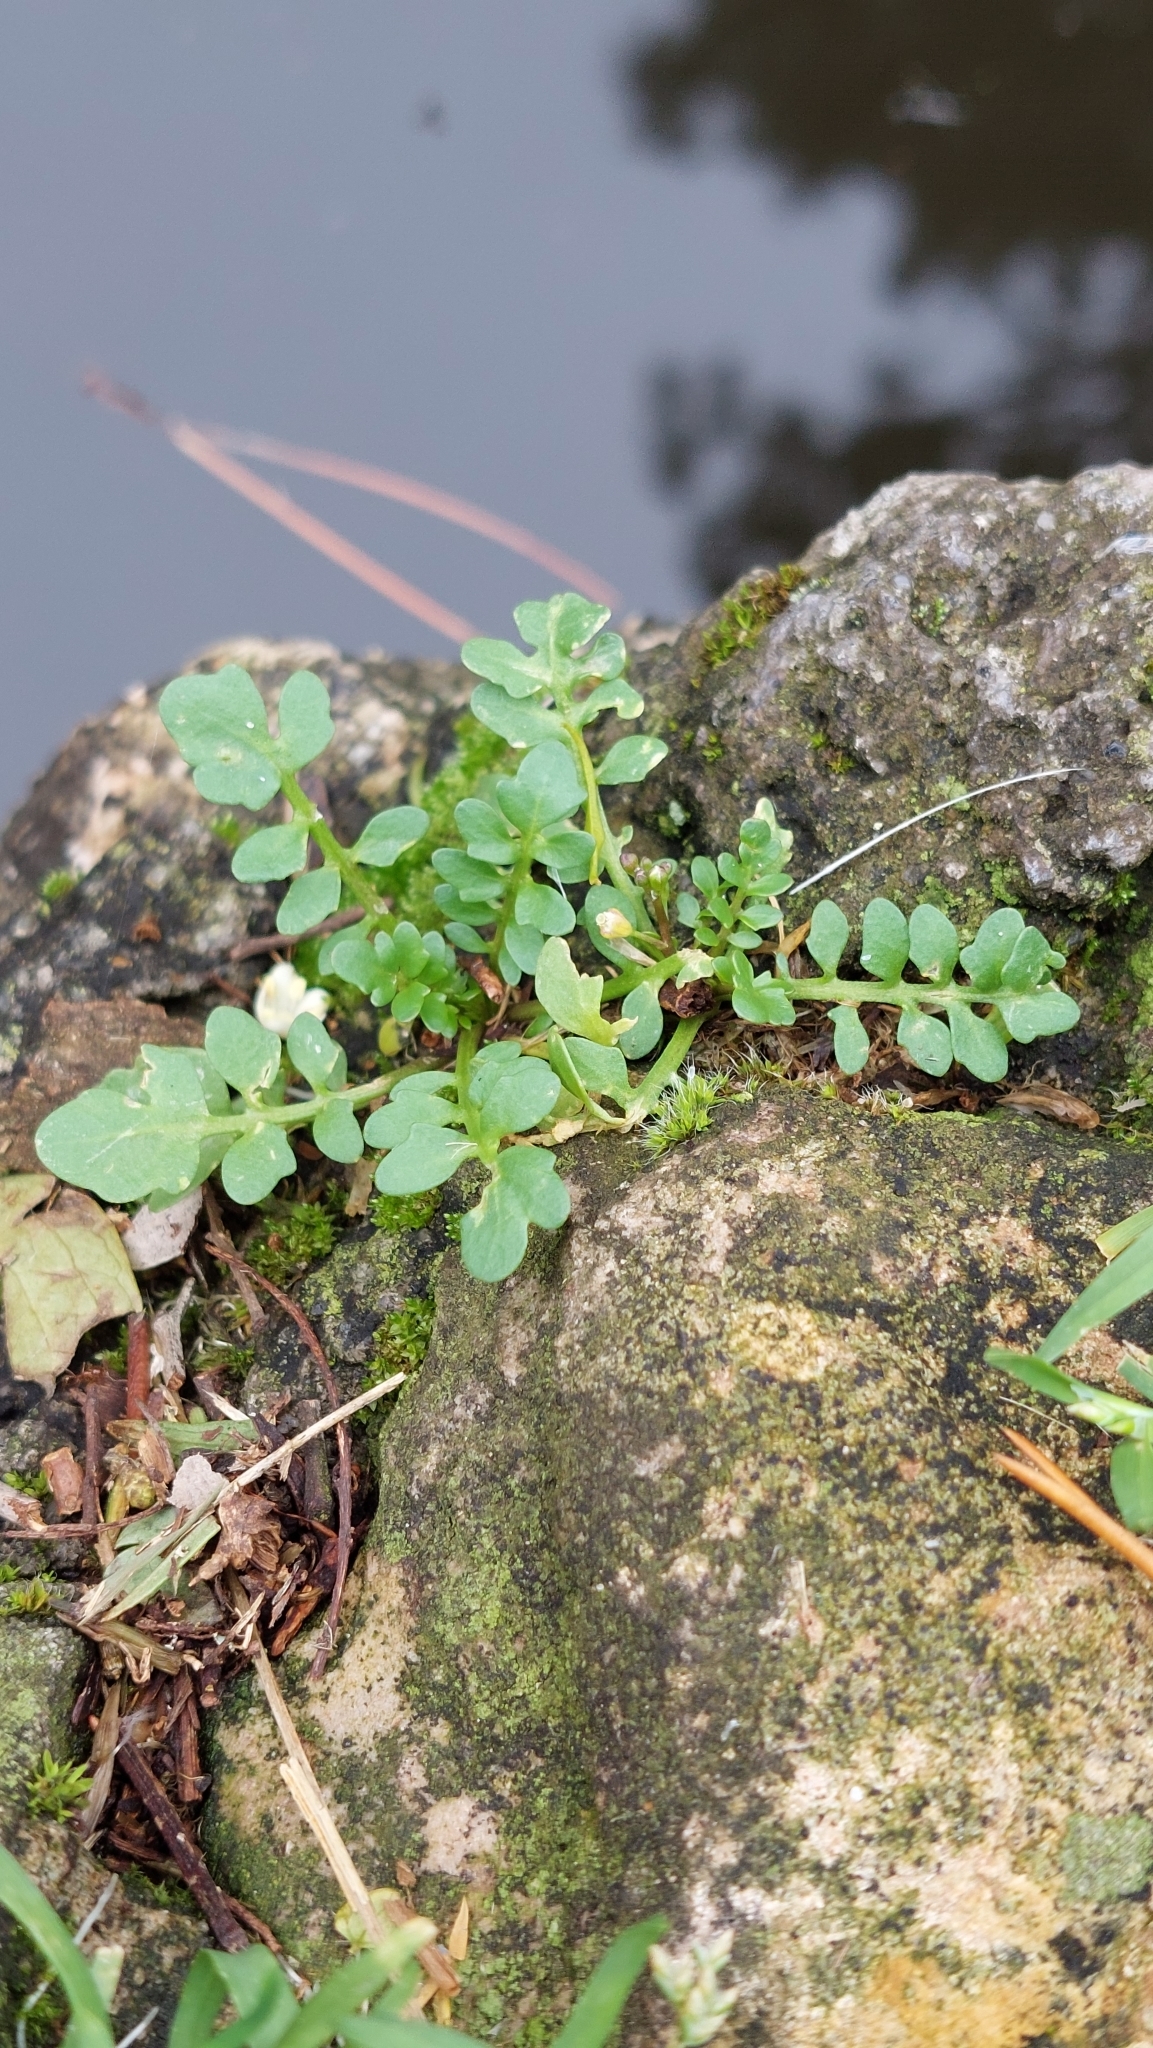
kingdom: Plantae
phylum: Tracheophyta
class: Magnoliopsida
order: Brassicales
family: Brassicaceae
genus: Cardamine
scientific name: Cardamine hirsuta
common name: Hairy bittercress
